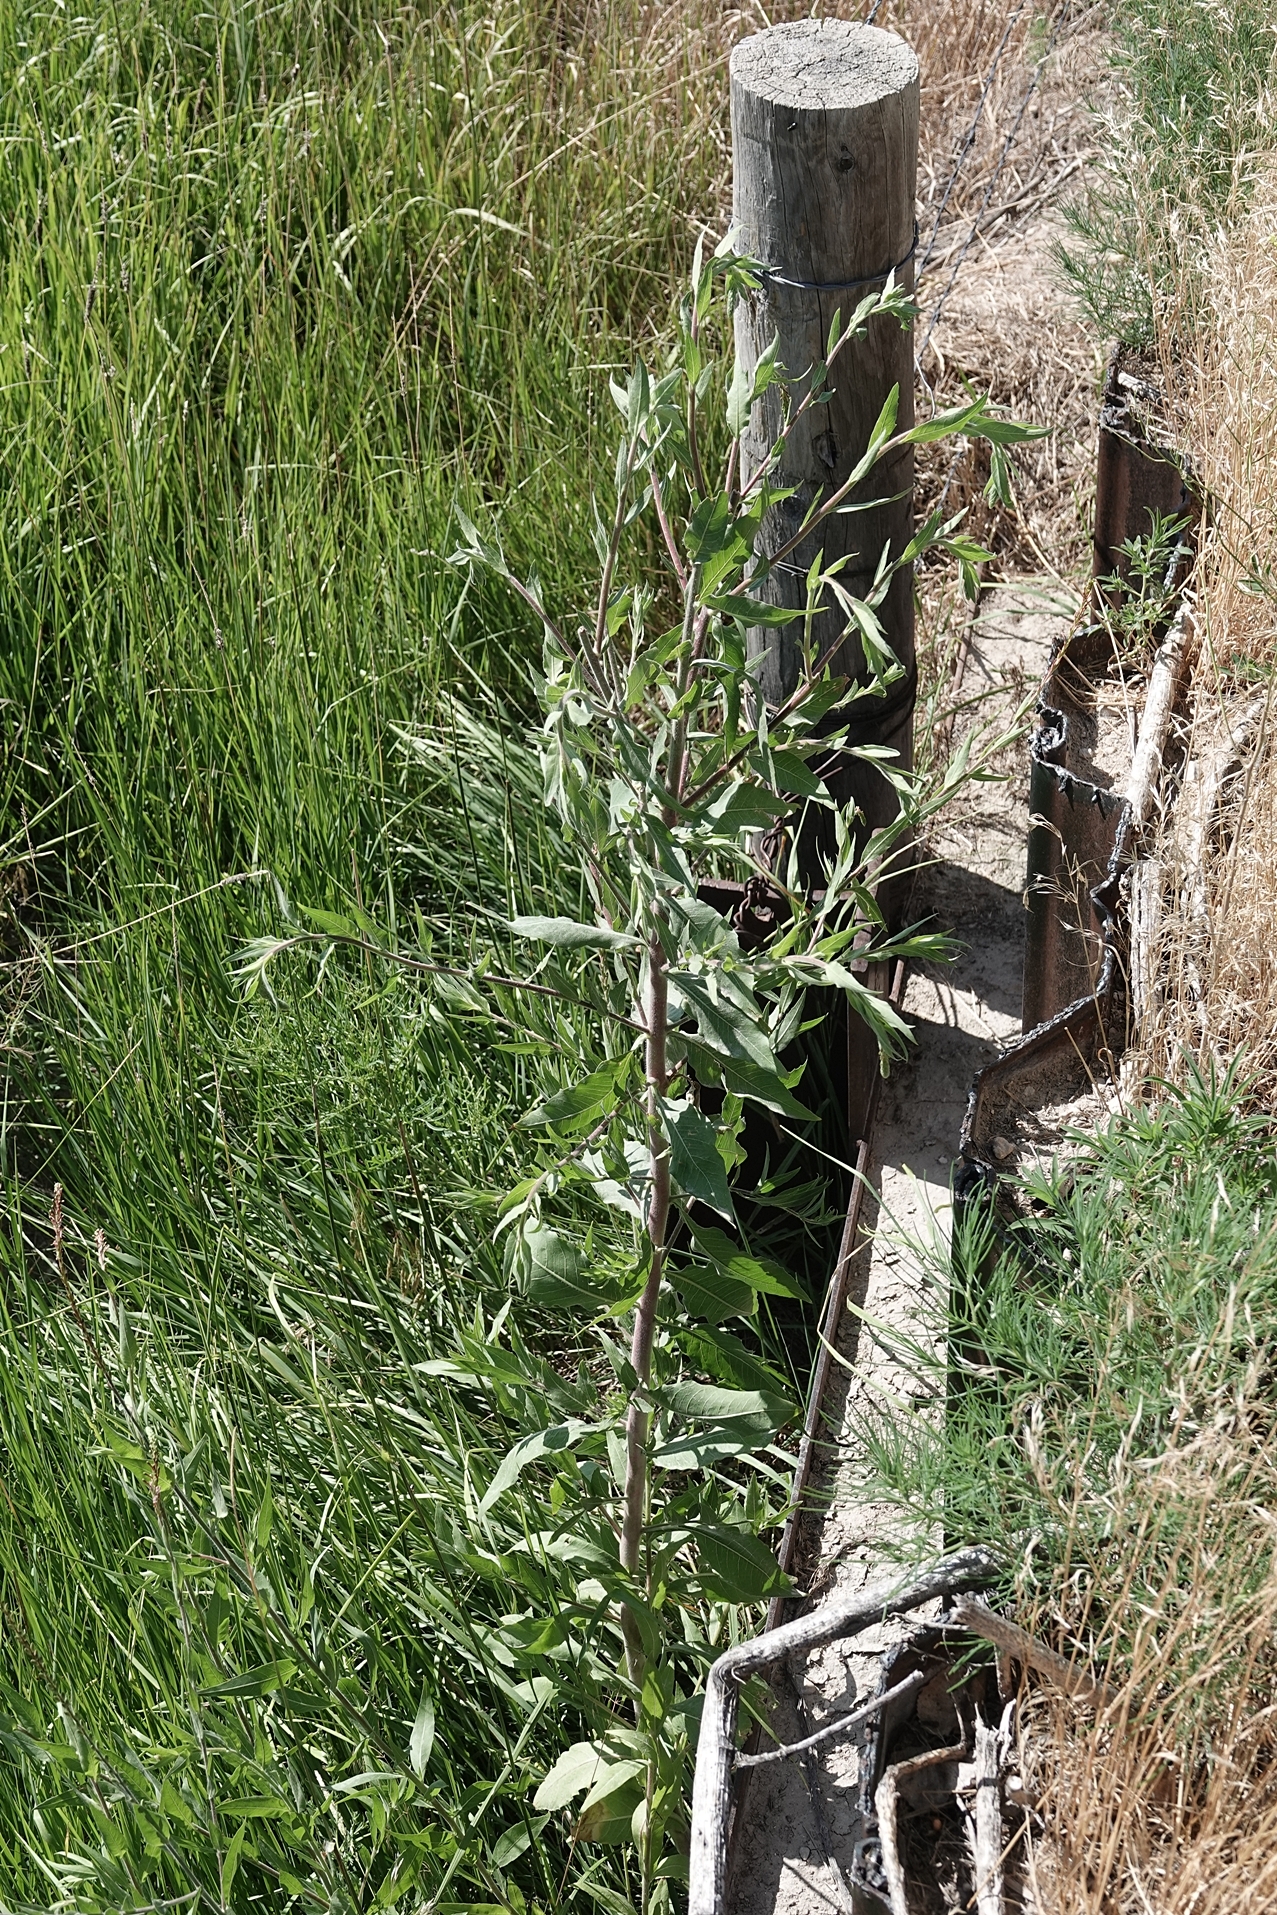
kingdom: Plantae
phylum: Tracheophyta
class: Magnoliopsida
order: Myrtales
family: Onagraceae
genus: Oenothera
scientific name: Oenothera curtiflora
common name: Velvetweed
